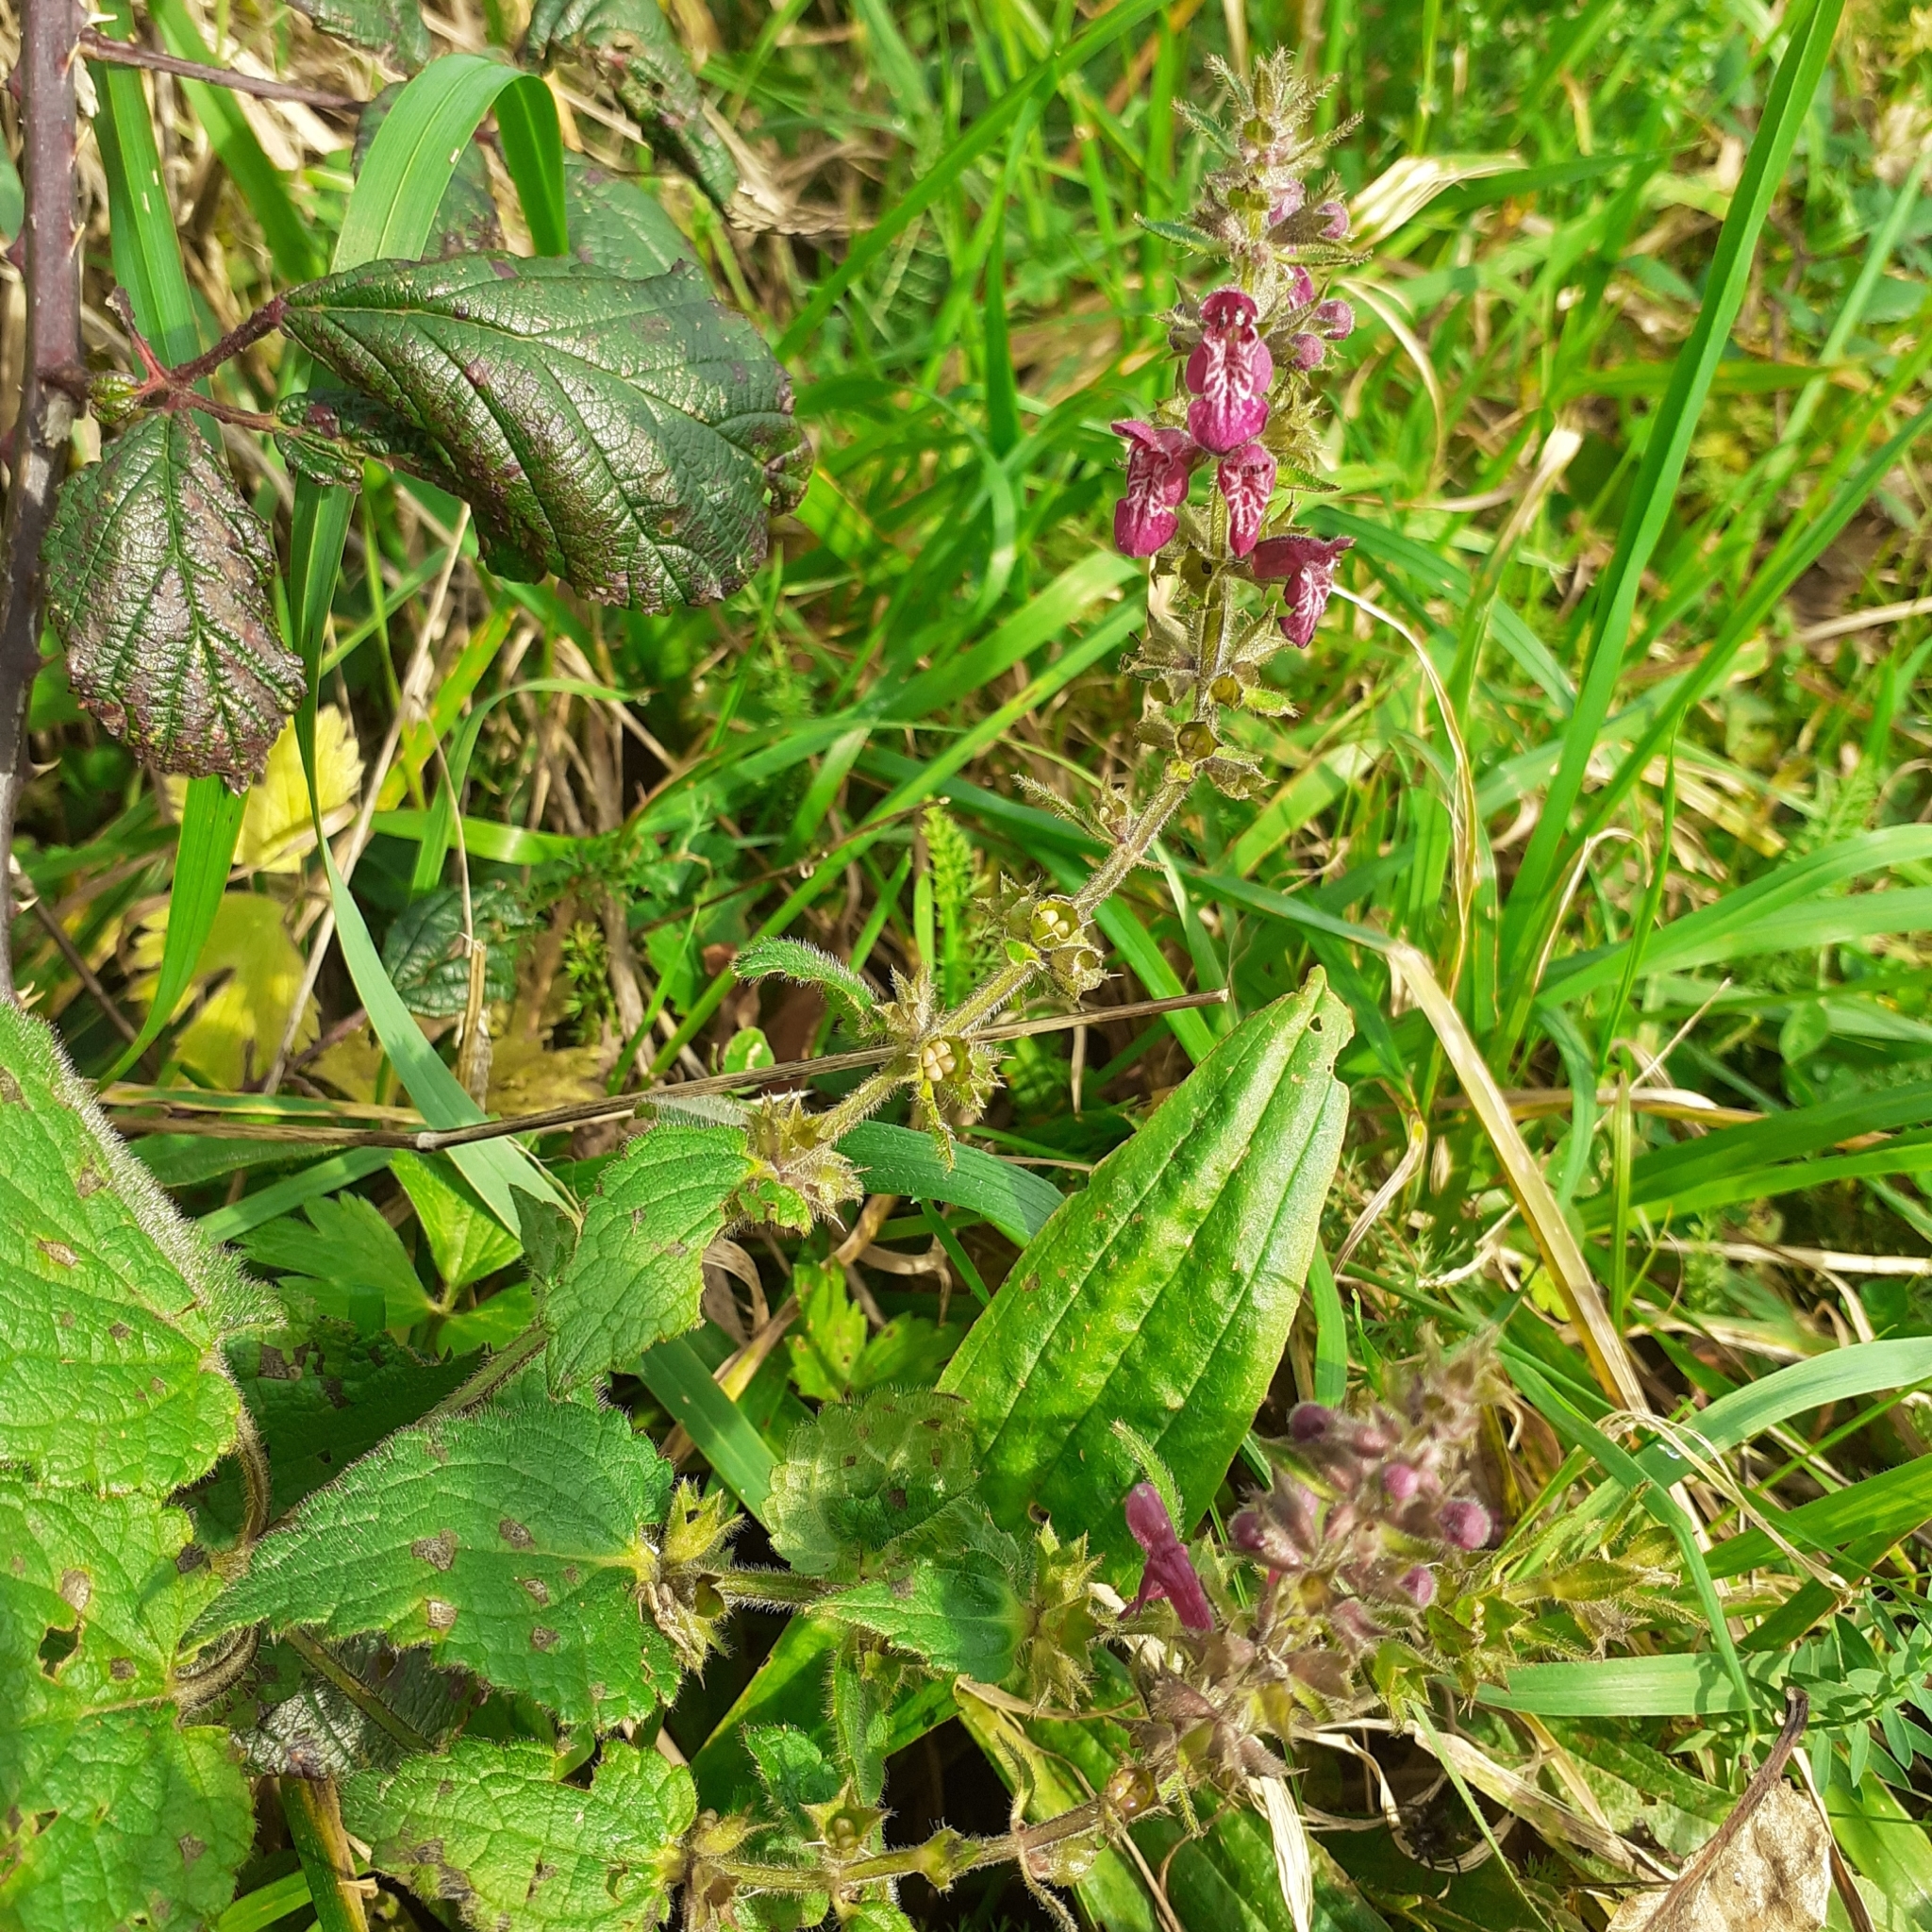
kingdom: Plantae
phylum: Tracheophyta
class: Magnoliopsida
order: Lamiales
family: Lamiaceae
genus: Stachys
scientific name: Stachys sylvatica
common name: Hedge woundwort
